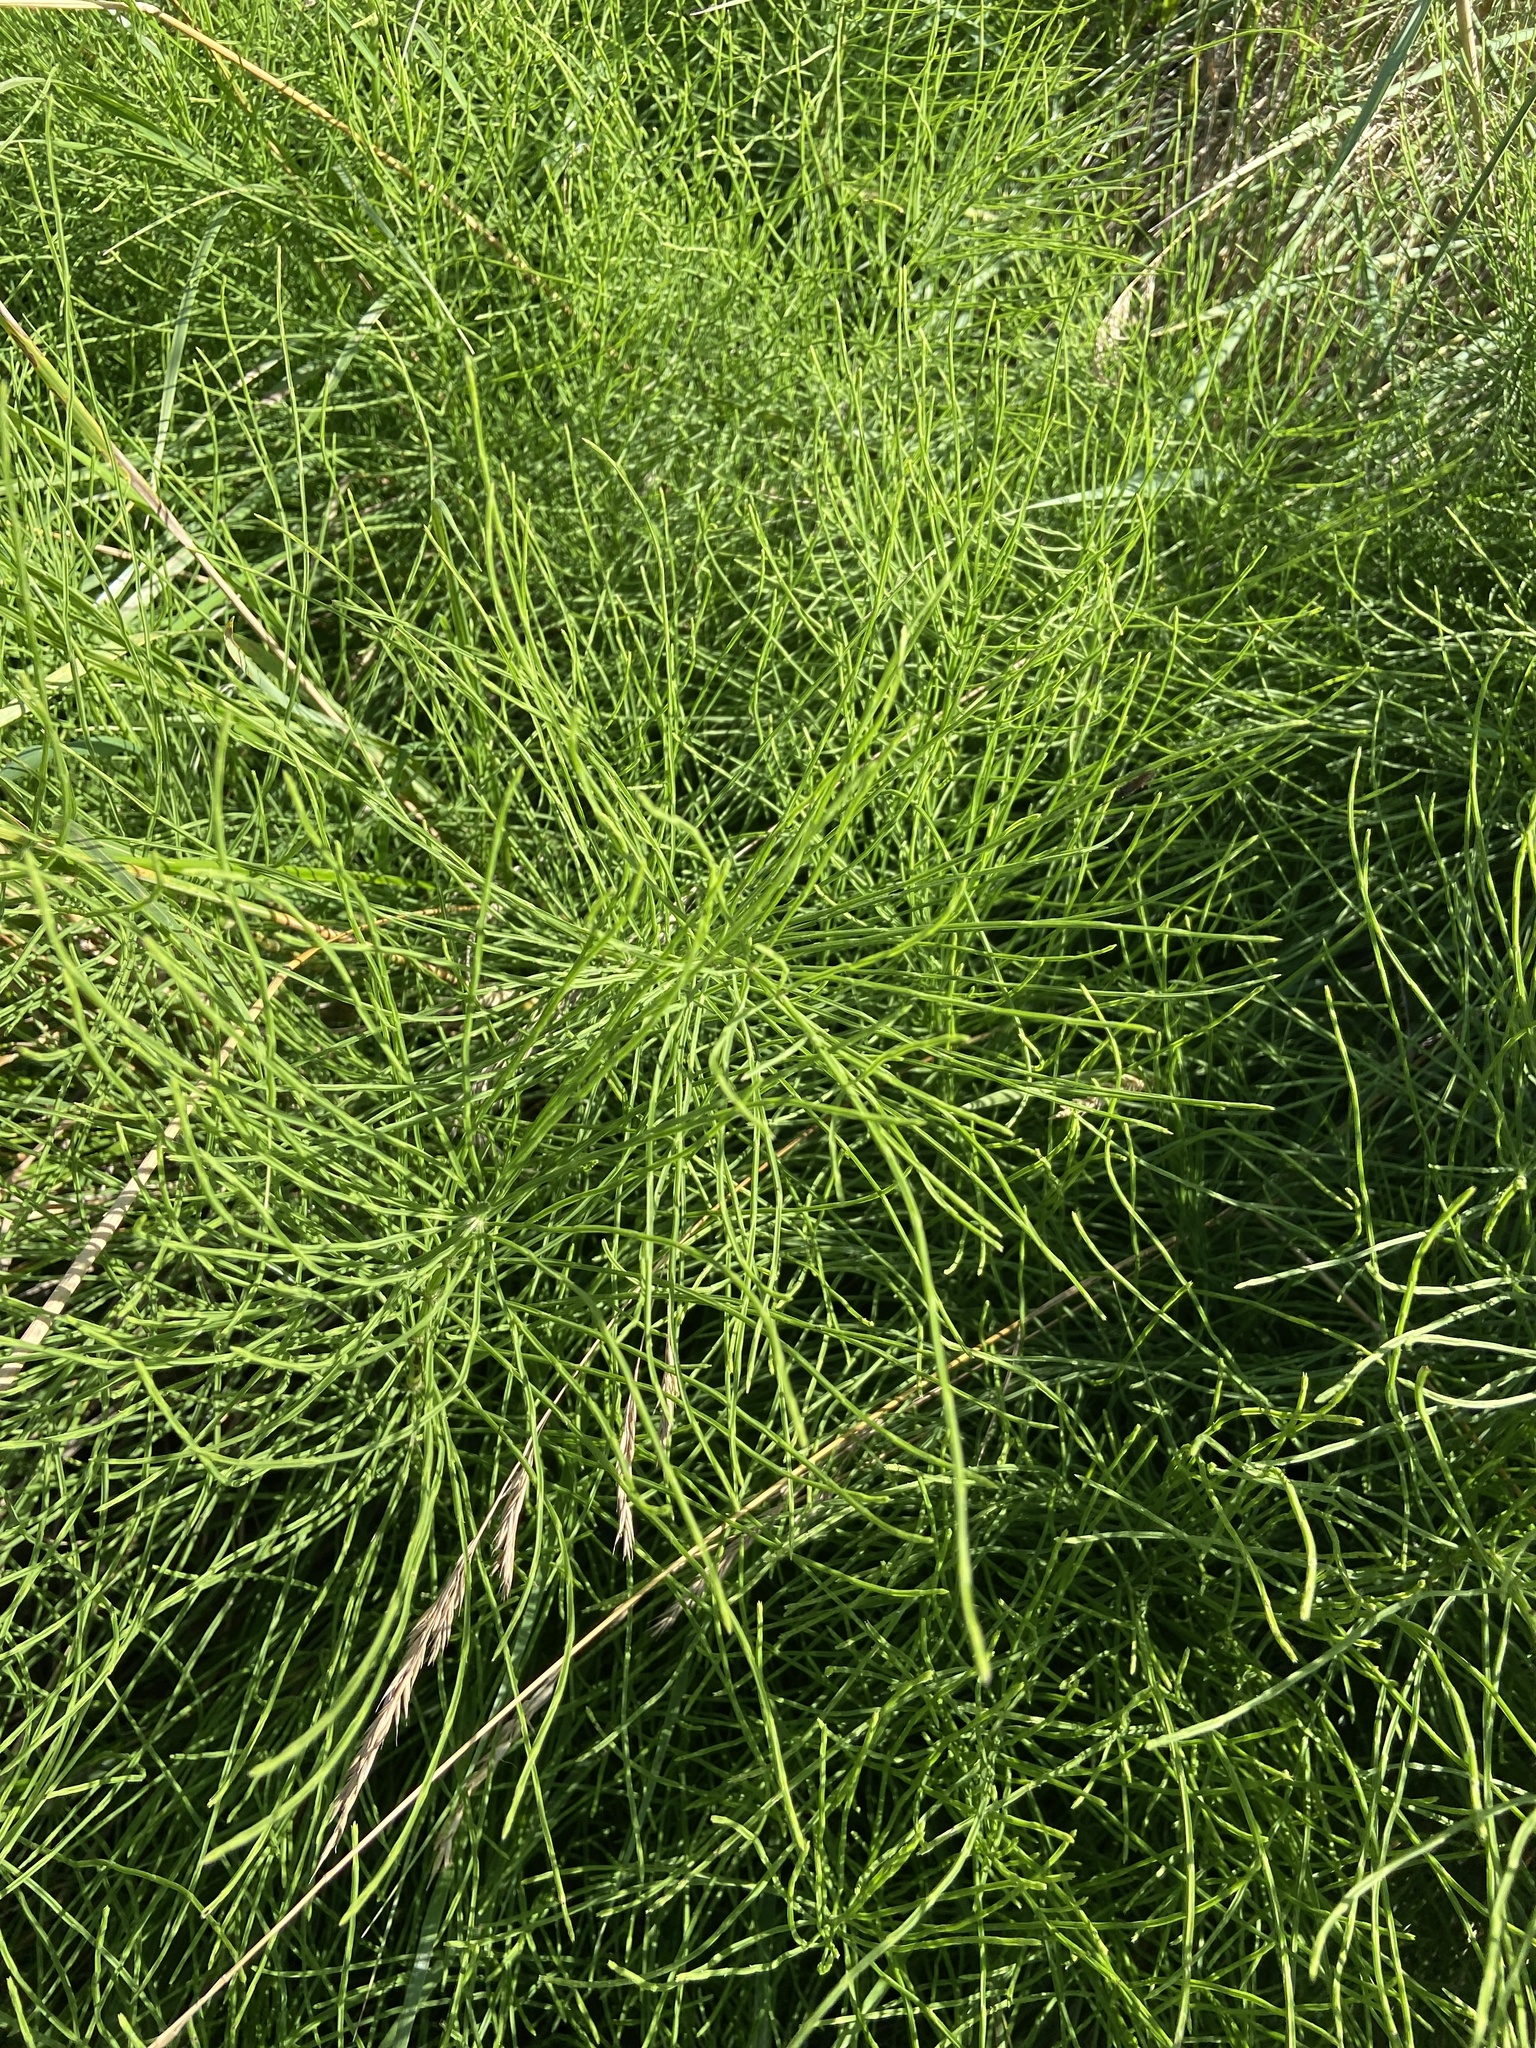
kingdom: Plantae
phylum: Tracheophyta
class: Polypodiopsida
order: Equisetales
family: Equisetaceae
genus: Equisetum
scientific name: Equisetum arvense
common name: Field horsetail
